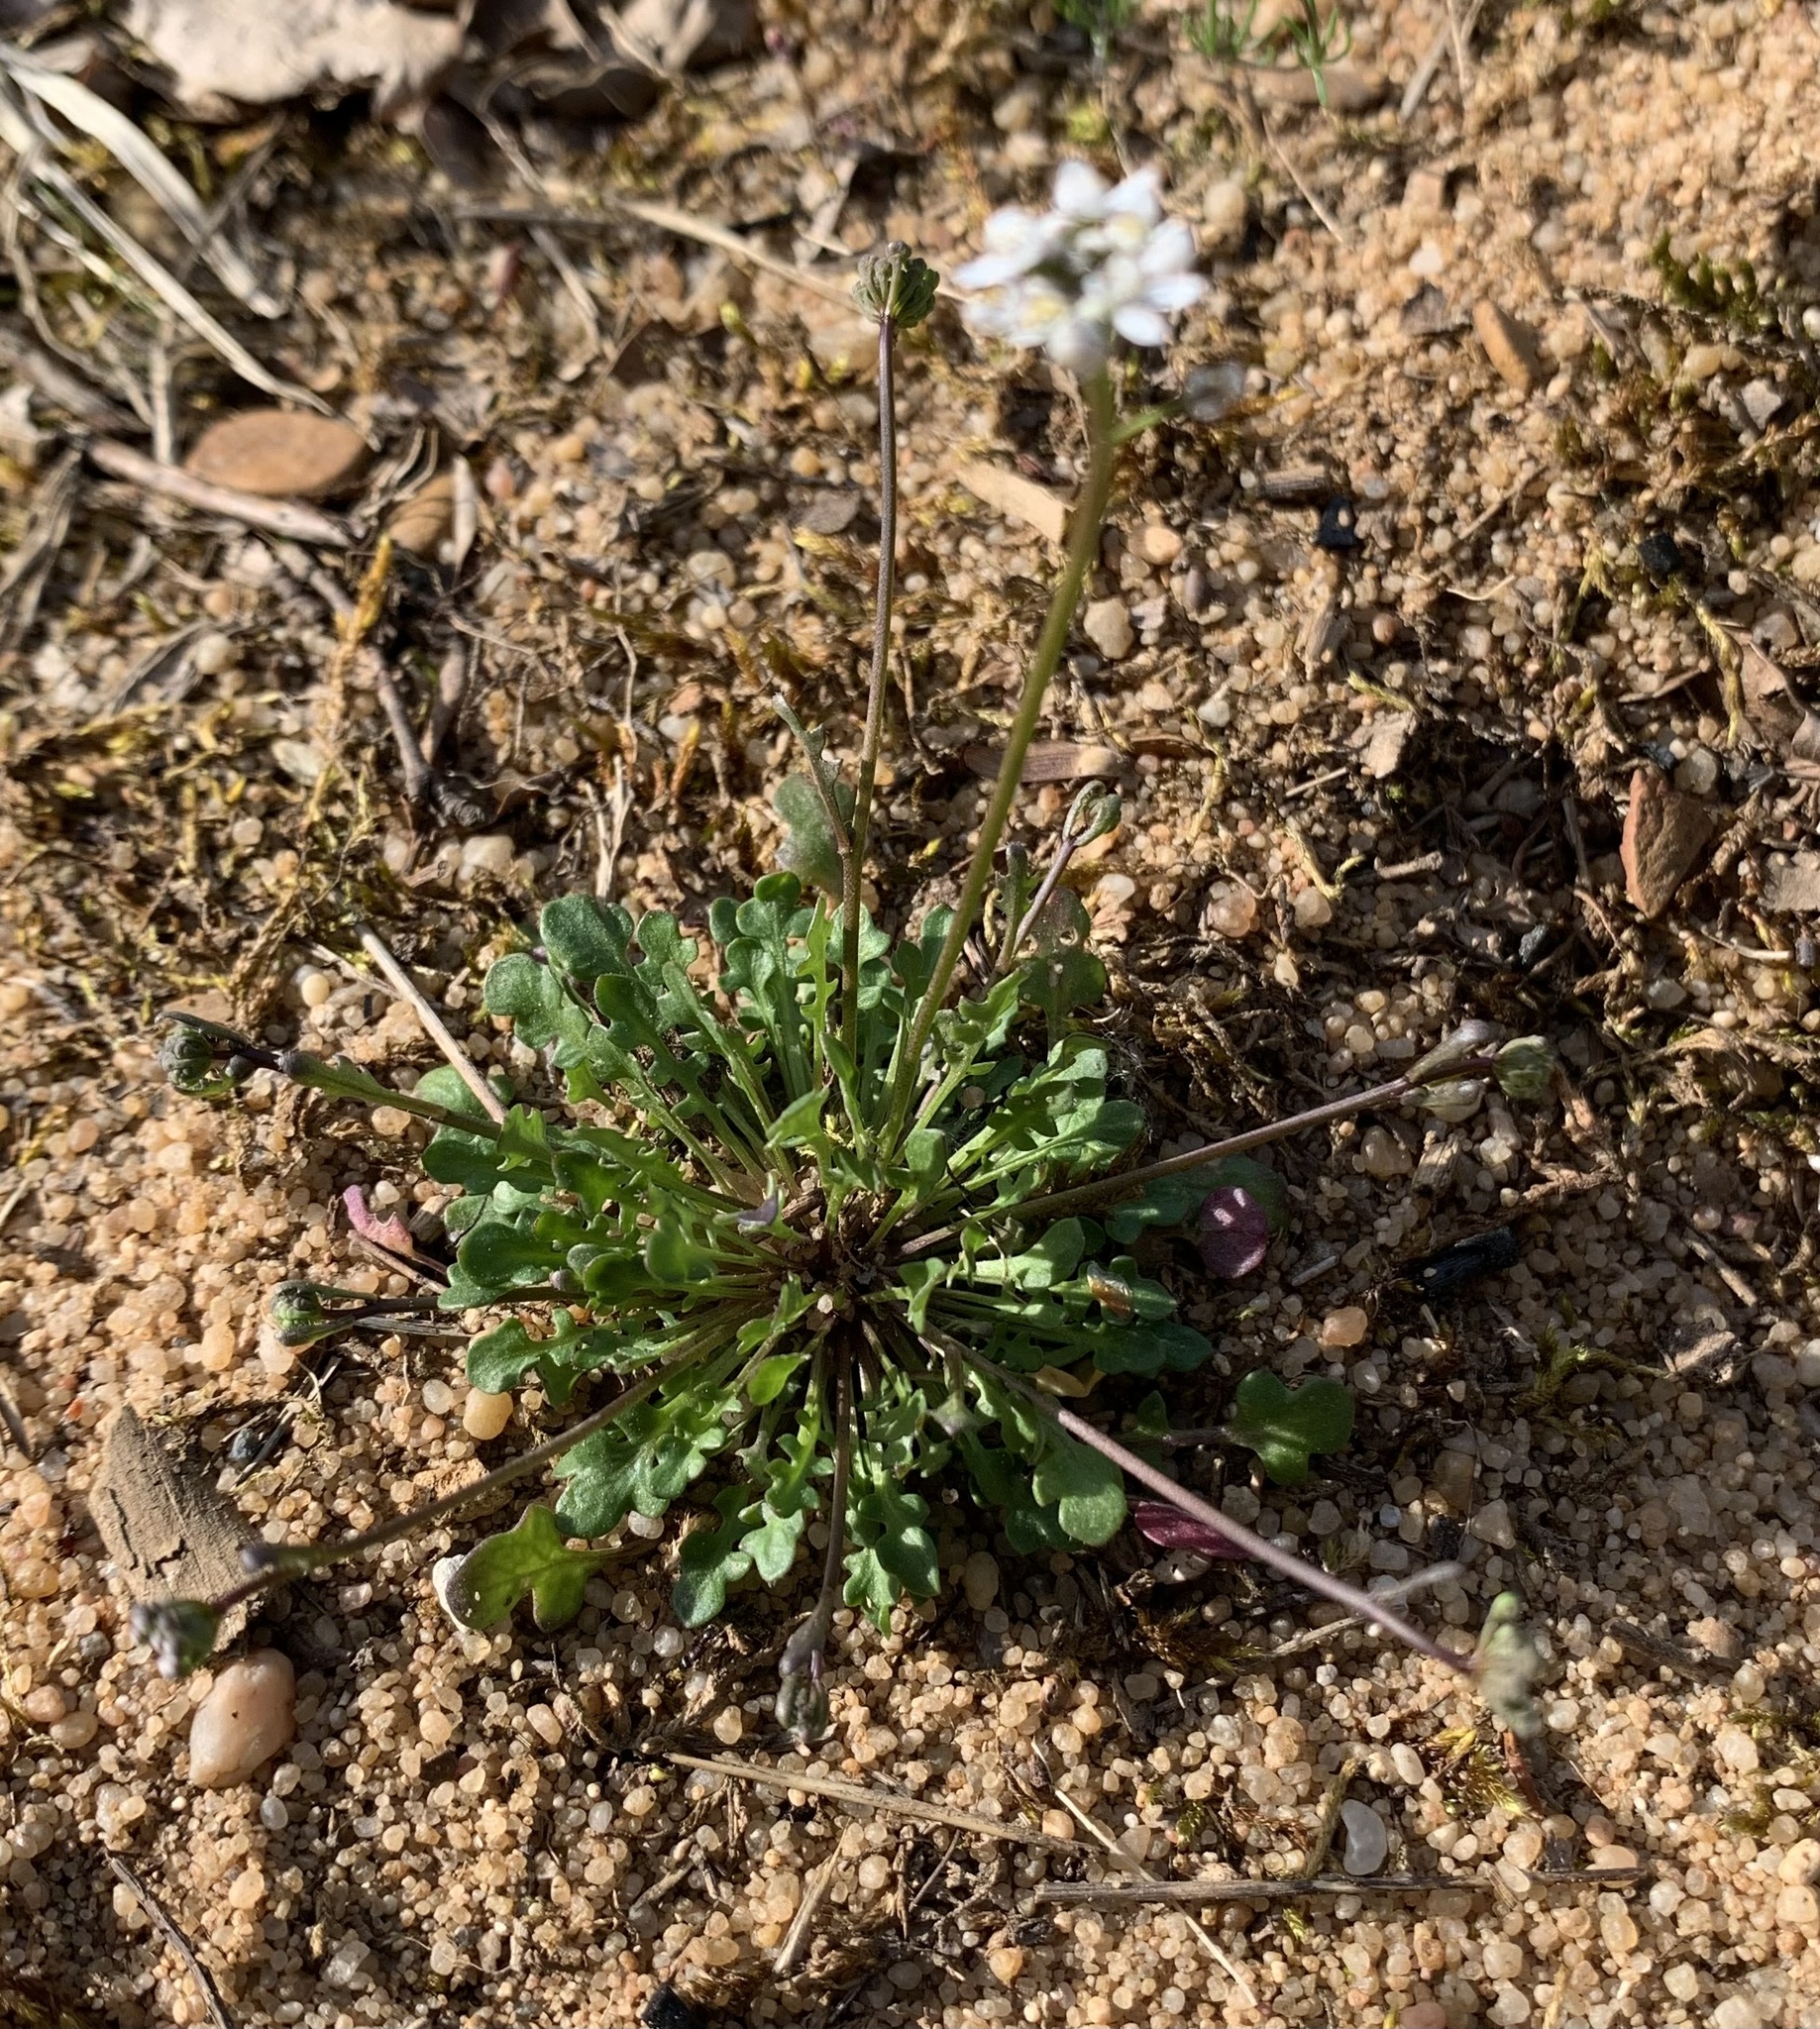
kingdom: Plantae
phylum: Tracheophyta
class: Magnoliopsida
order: Brassicales
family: Brassicaceae
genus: Teesdalia
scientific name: Teesdalia nudicaulis
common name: Shepherd's cress
